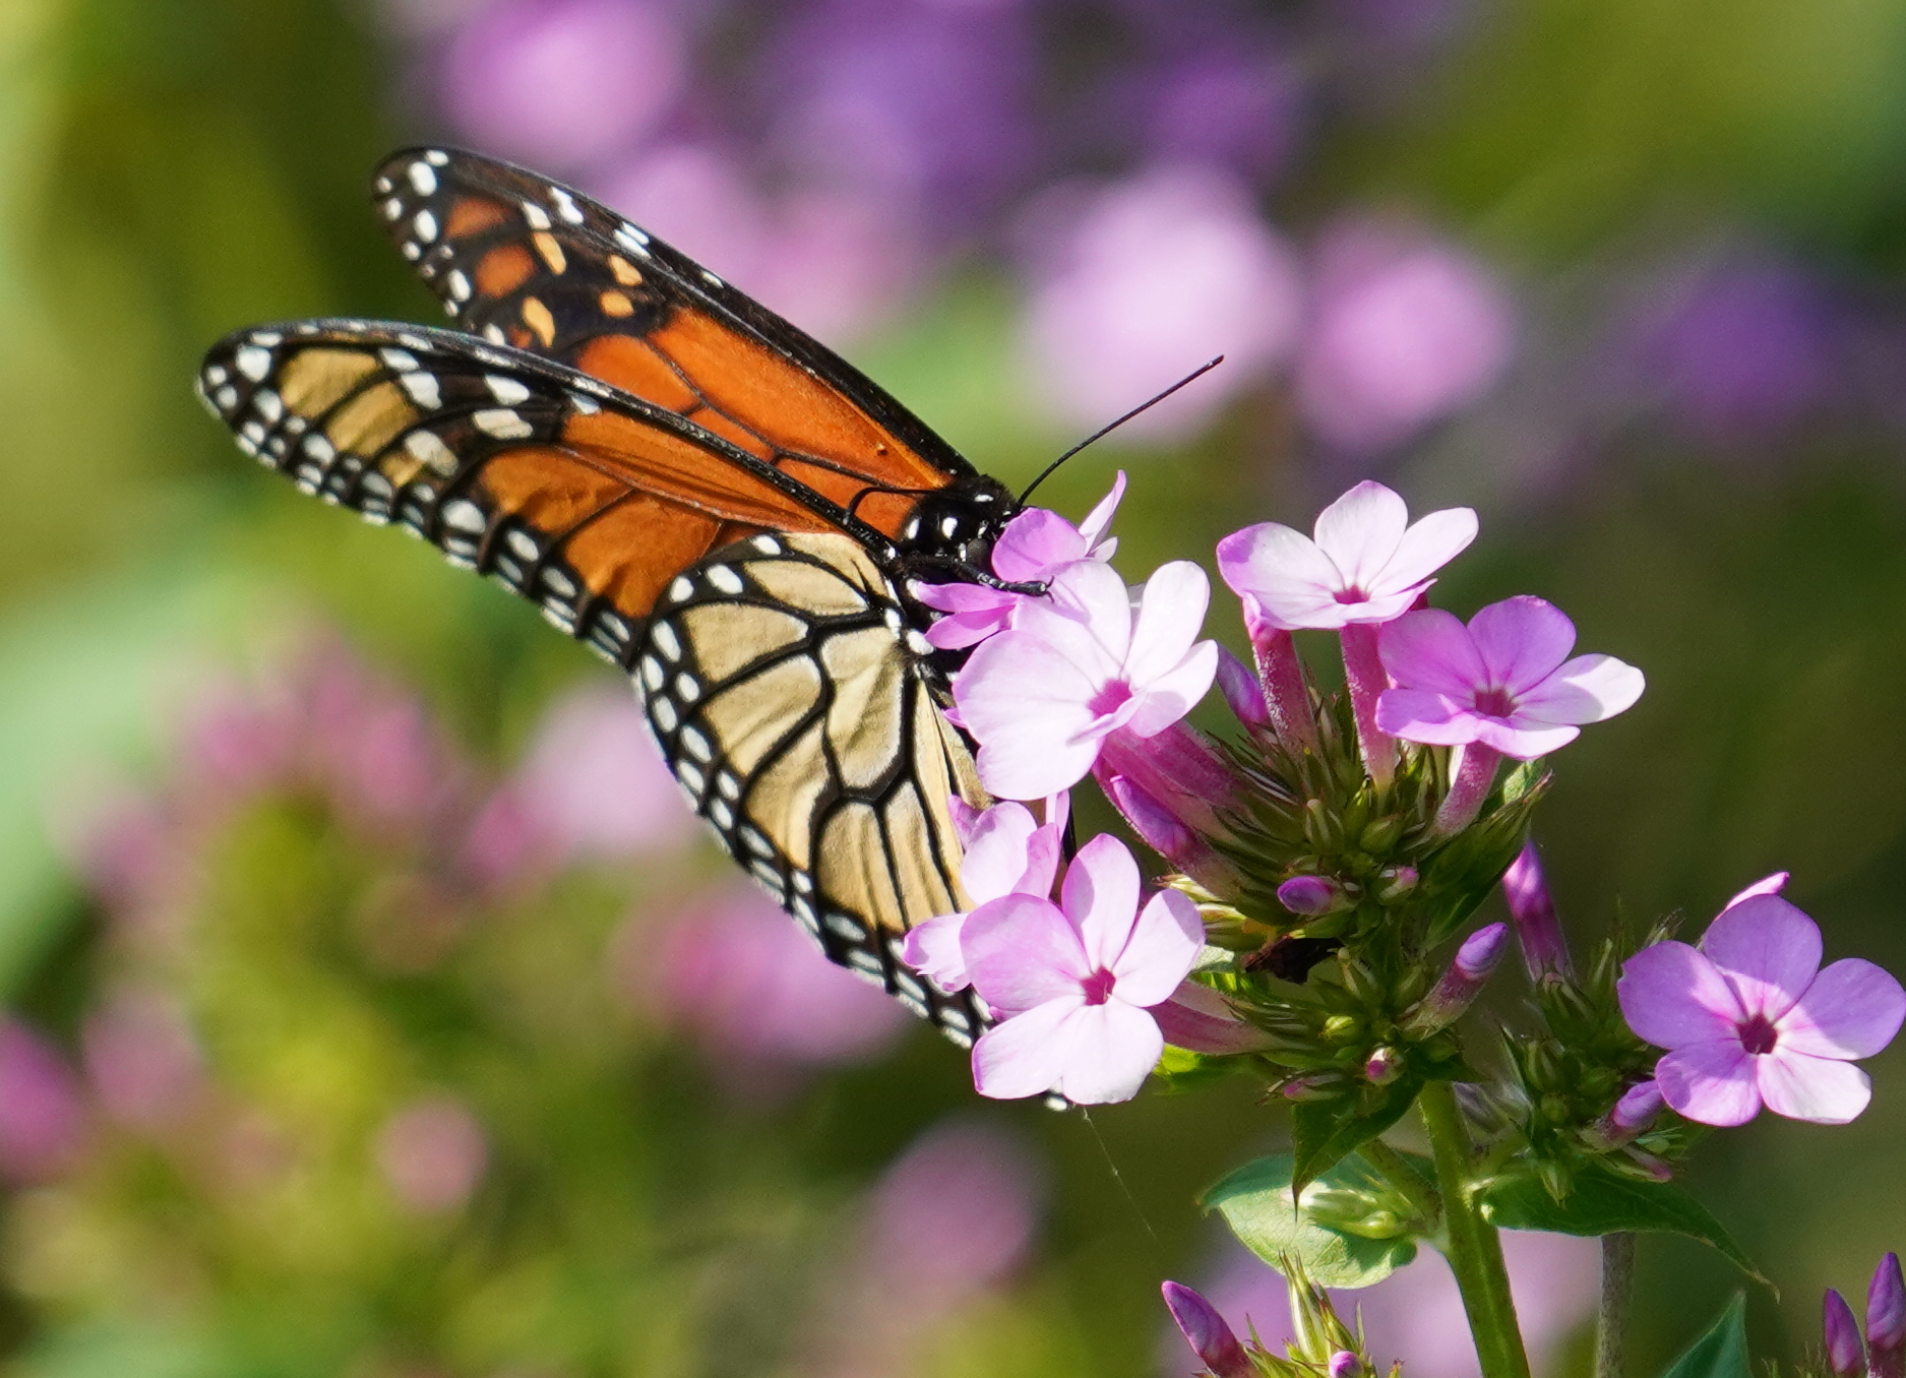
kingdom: Animalia
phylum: Arthropoda
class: Insecta
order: Lepidoptera
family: Nymphalidae
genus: Danaus
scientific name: Danaus plexippus
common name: Monarch
